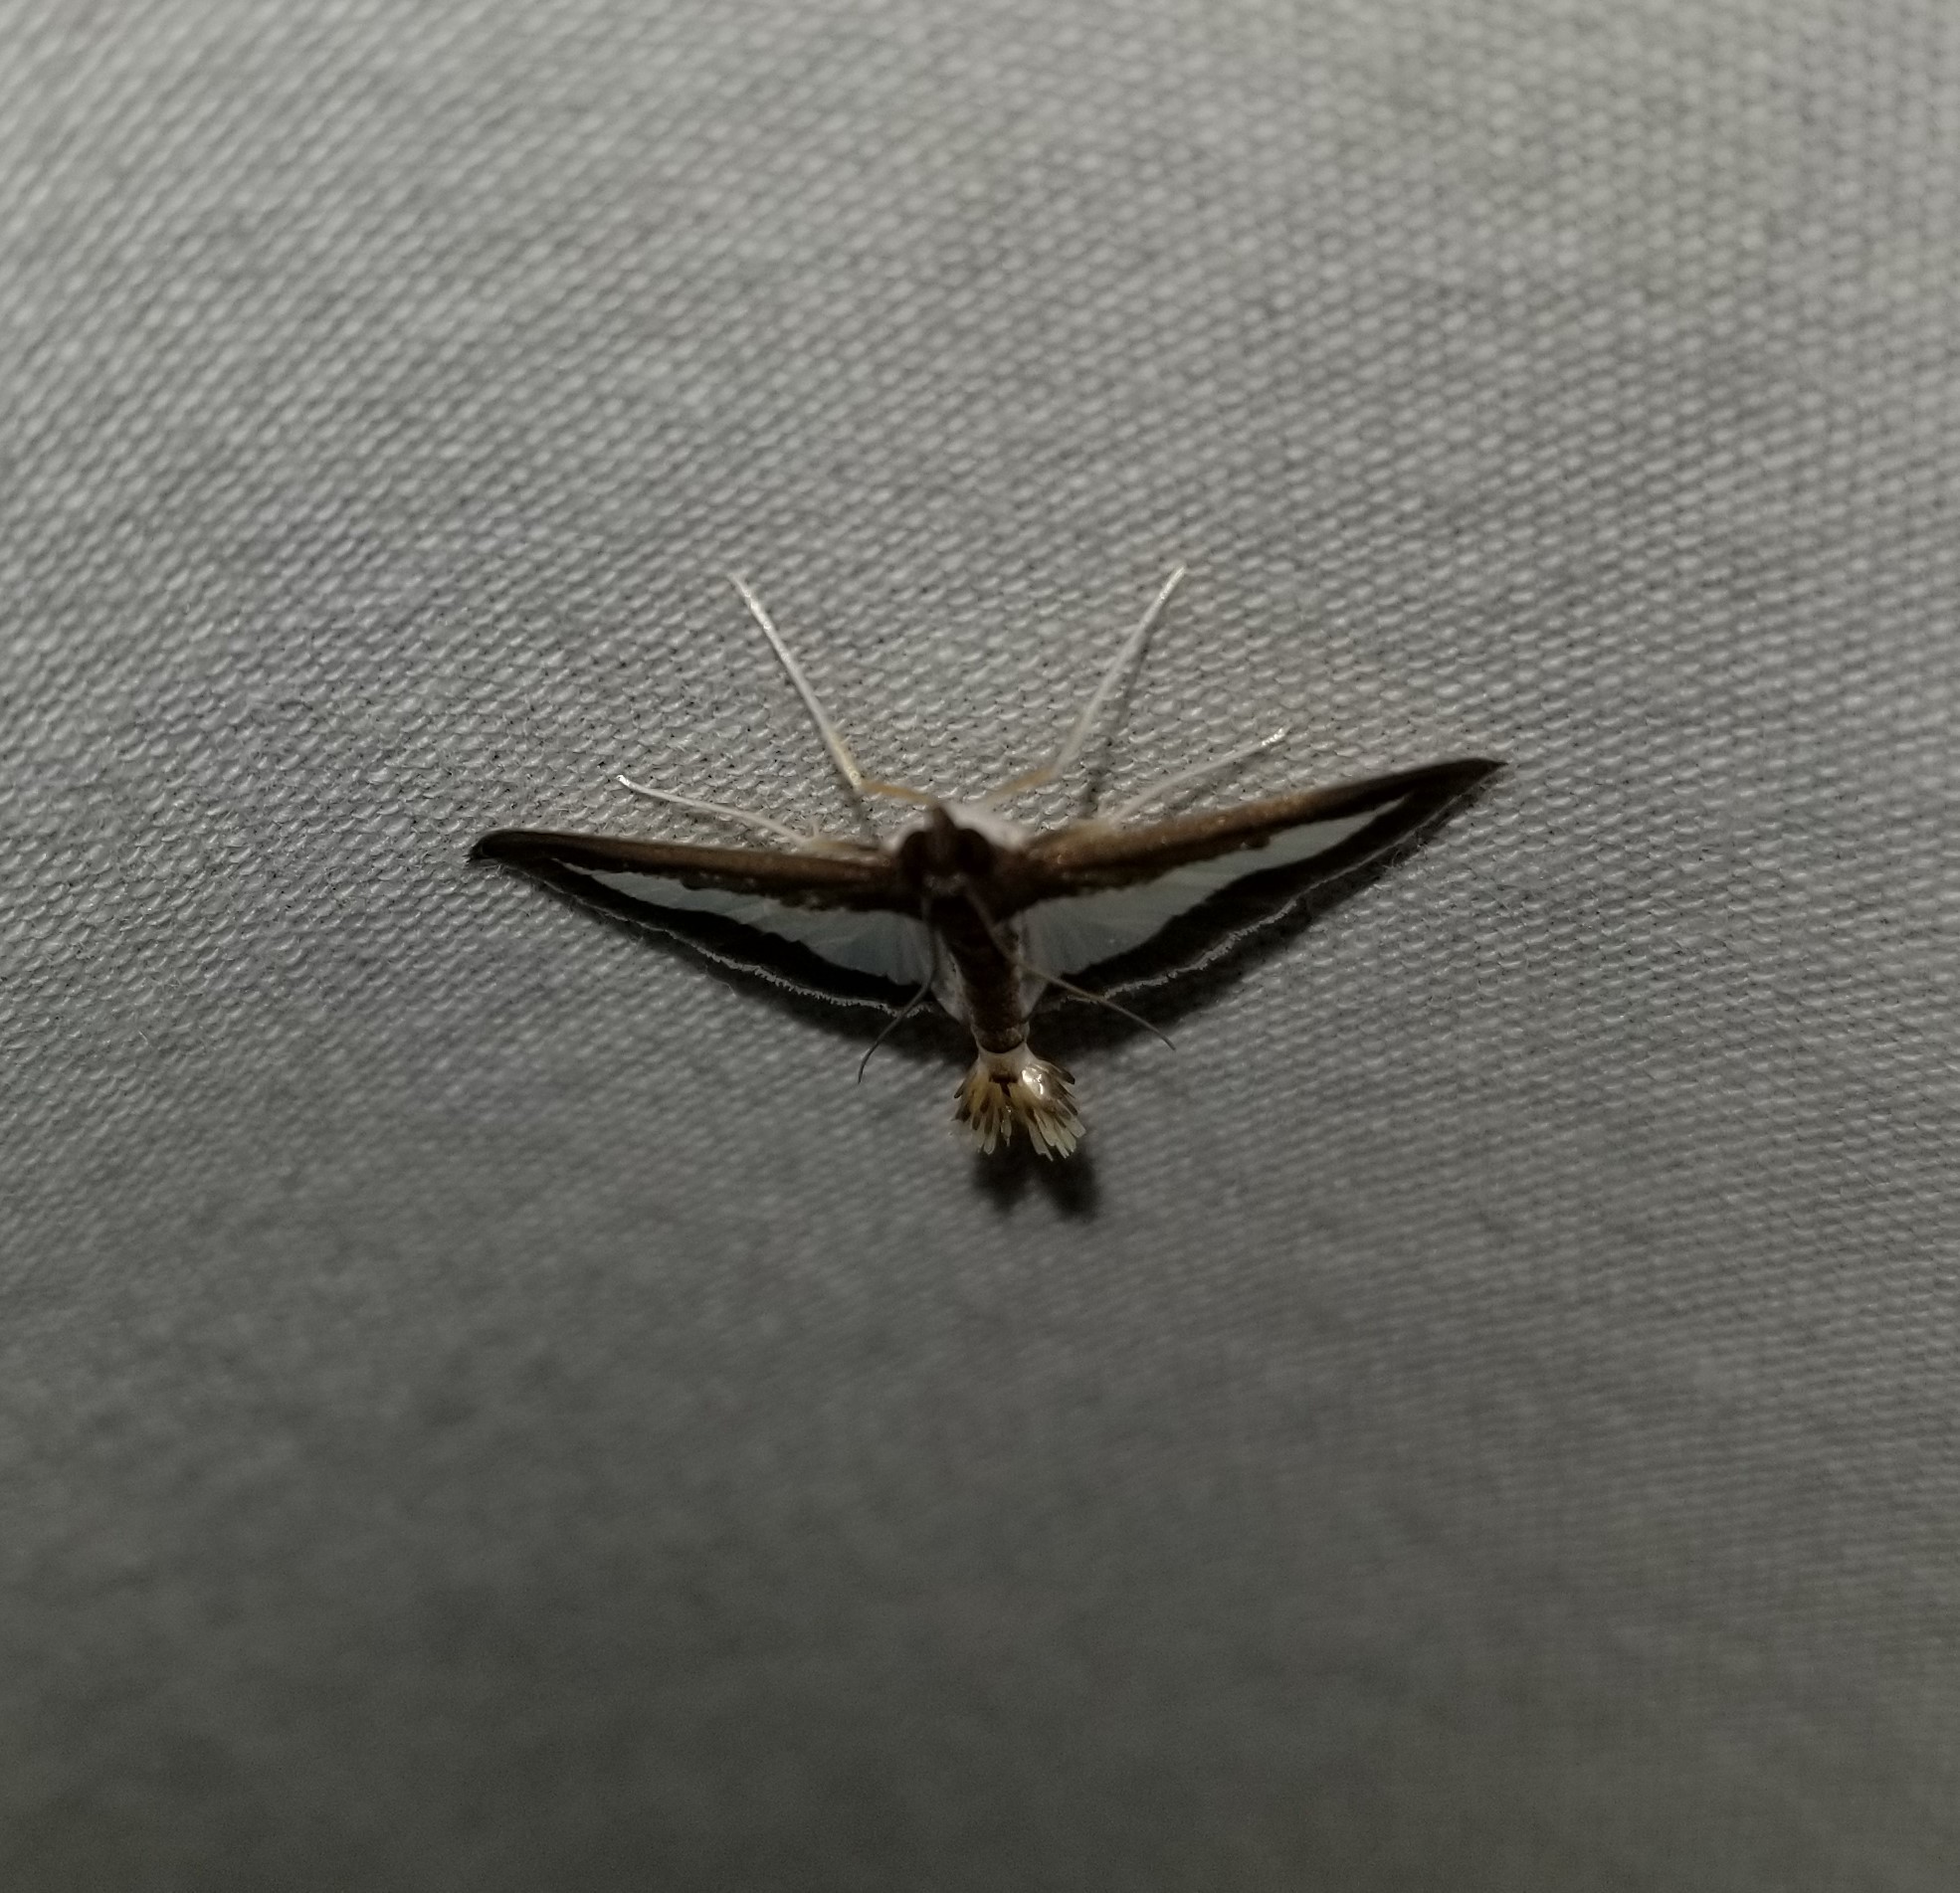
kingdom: Animalia
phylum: Arthropoda
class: Insecta
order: Lepidoptera
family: Crambidae
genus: Cryptographis
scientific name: Cryptographis infimalis
